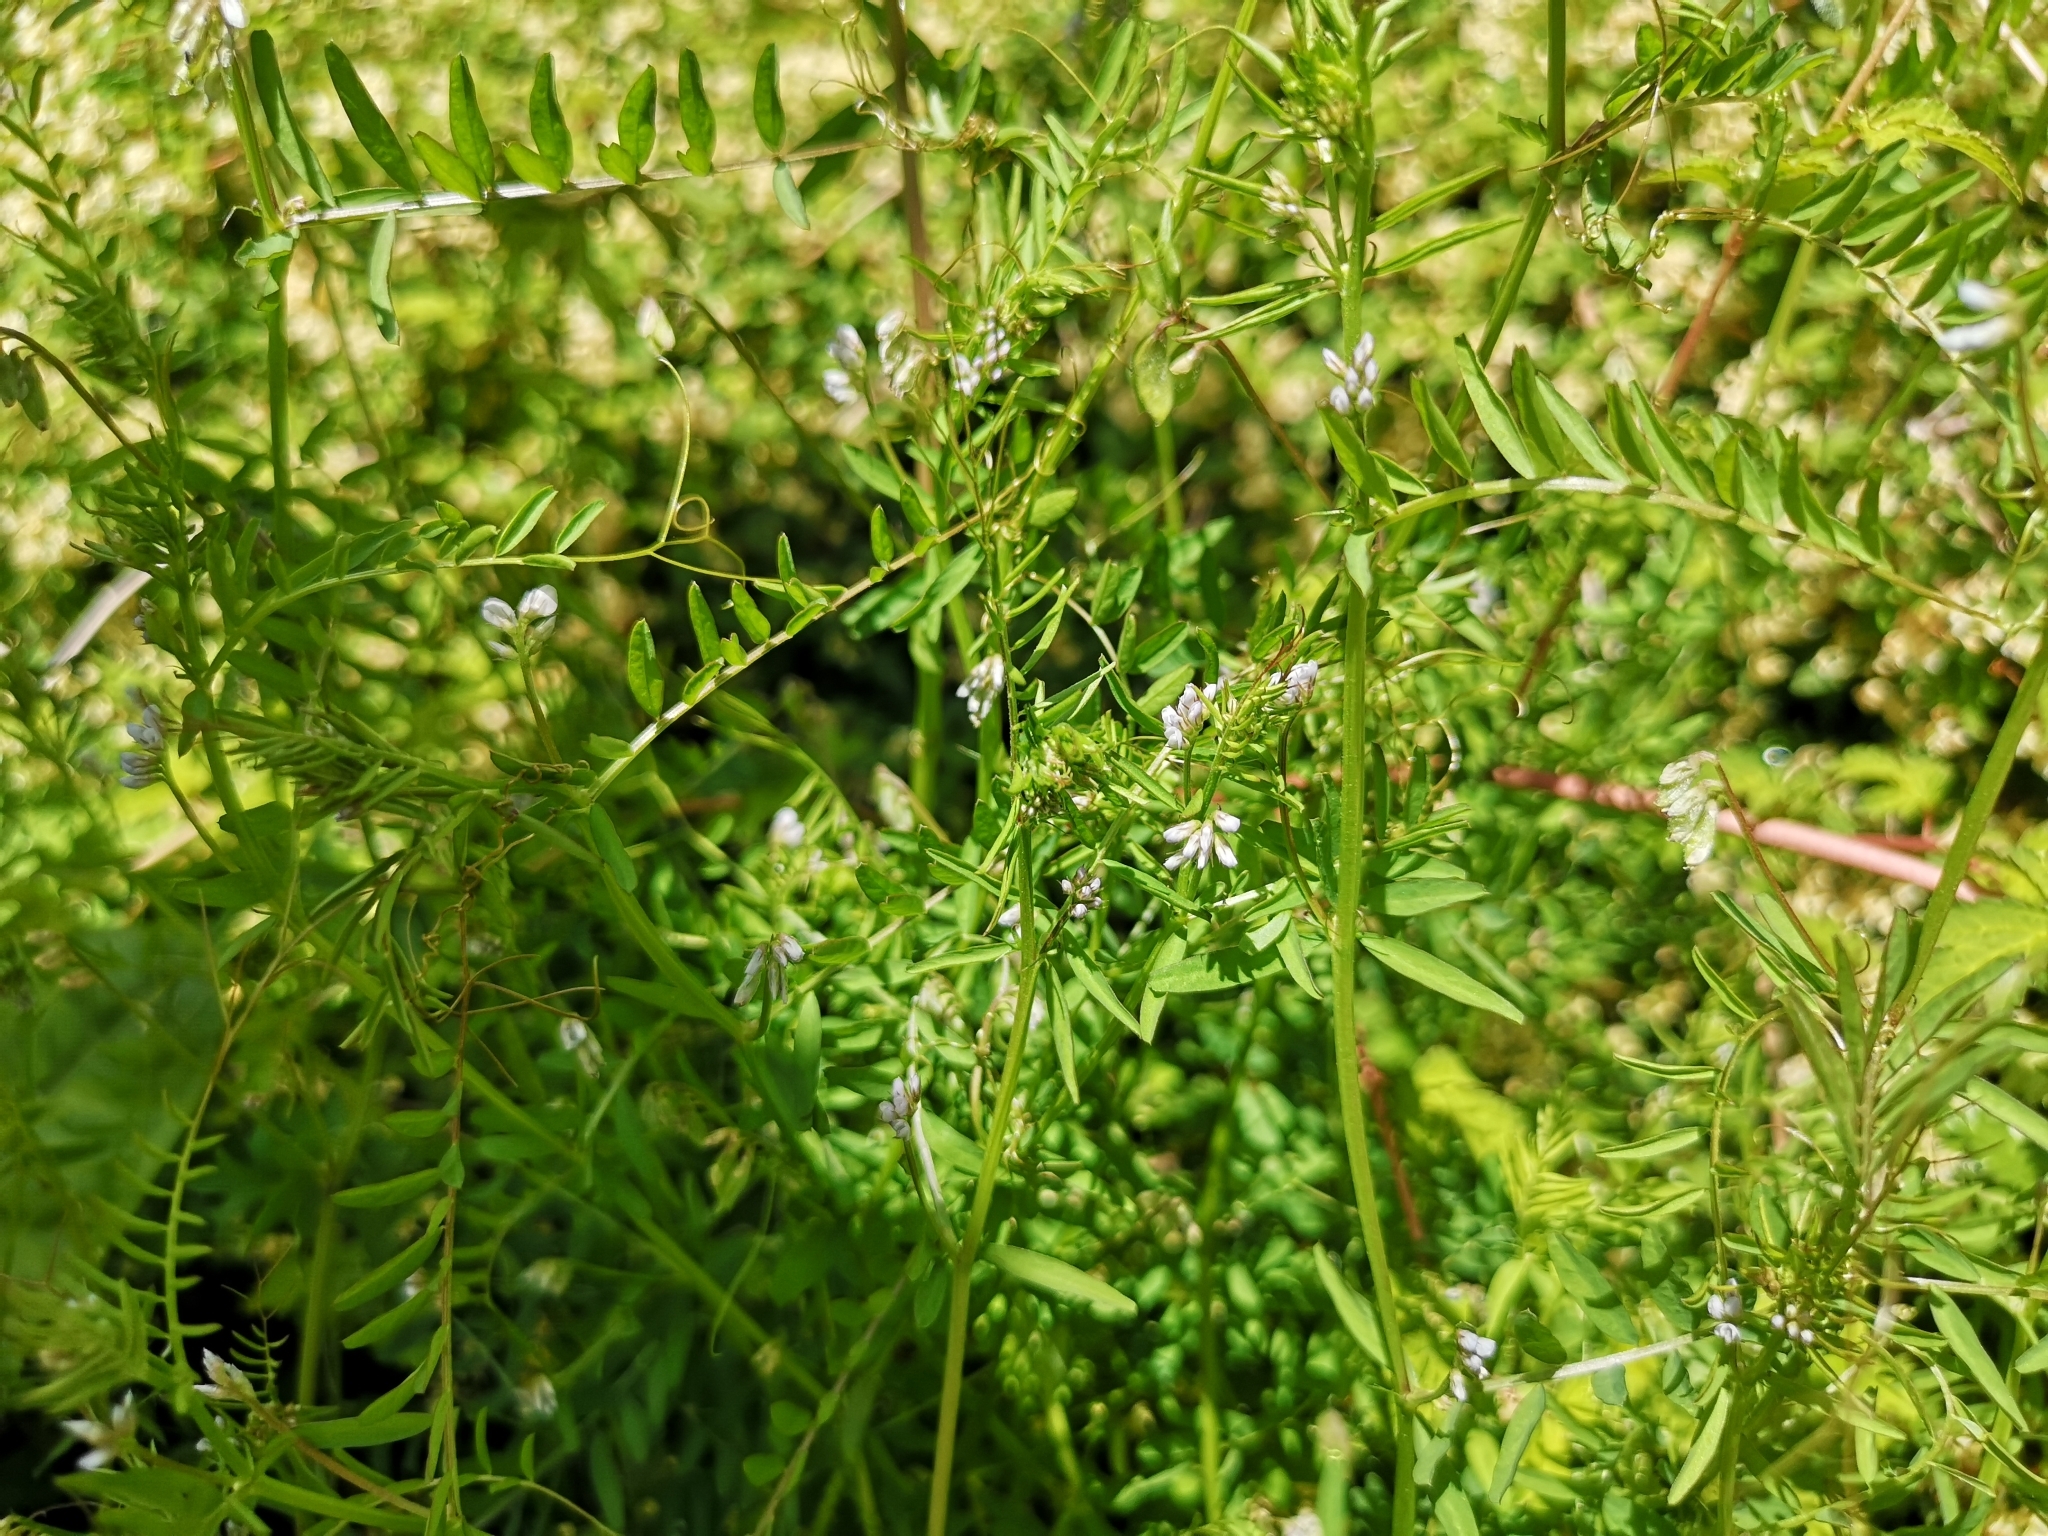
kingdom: Plantae
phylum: Tracheophyta
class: Magnoliopsida
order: Fabales
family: Fabaceae
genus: Vicia
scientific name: Vicia hirsuta
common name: Tiny vetch
